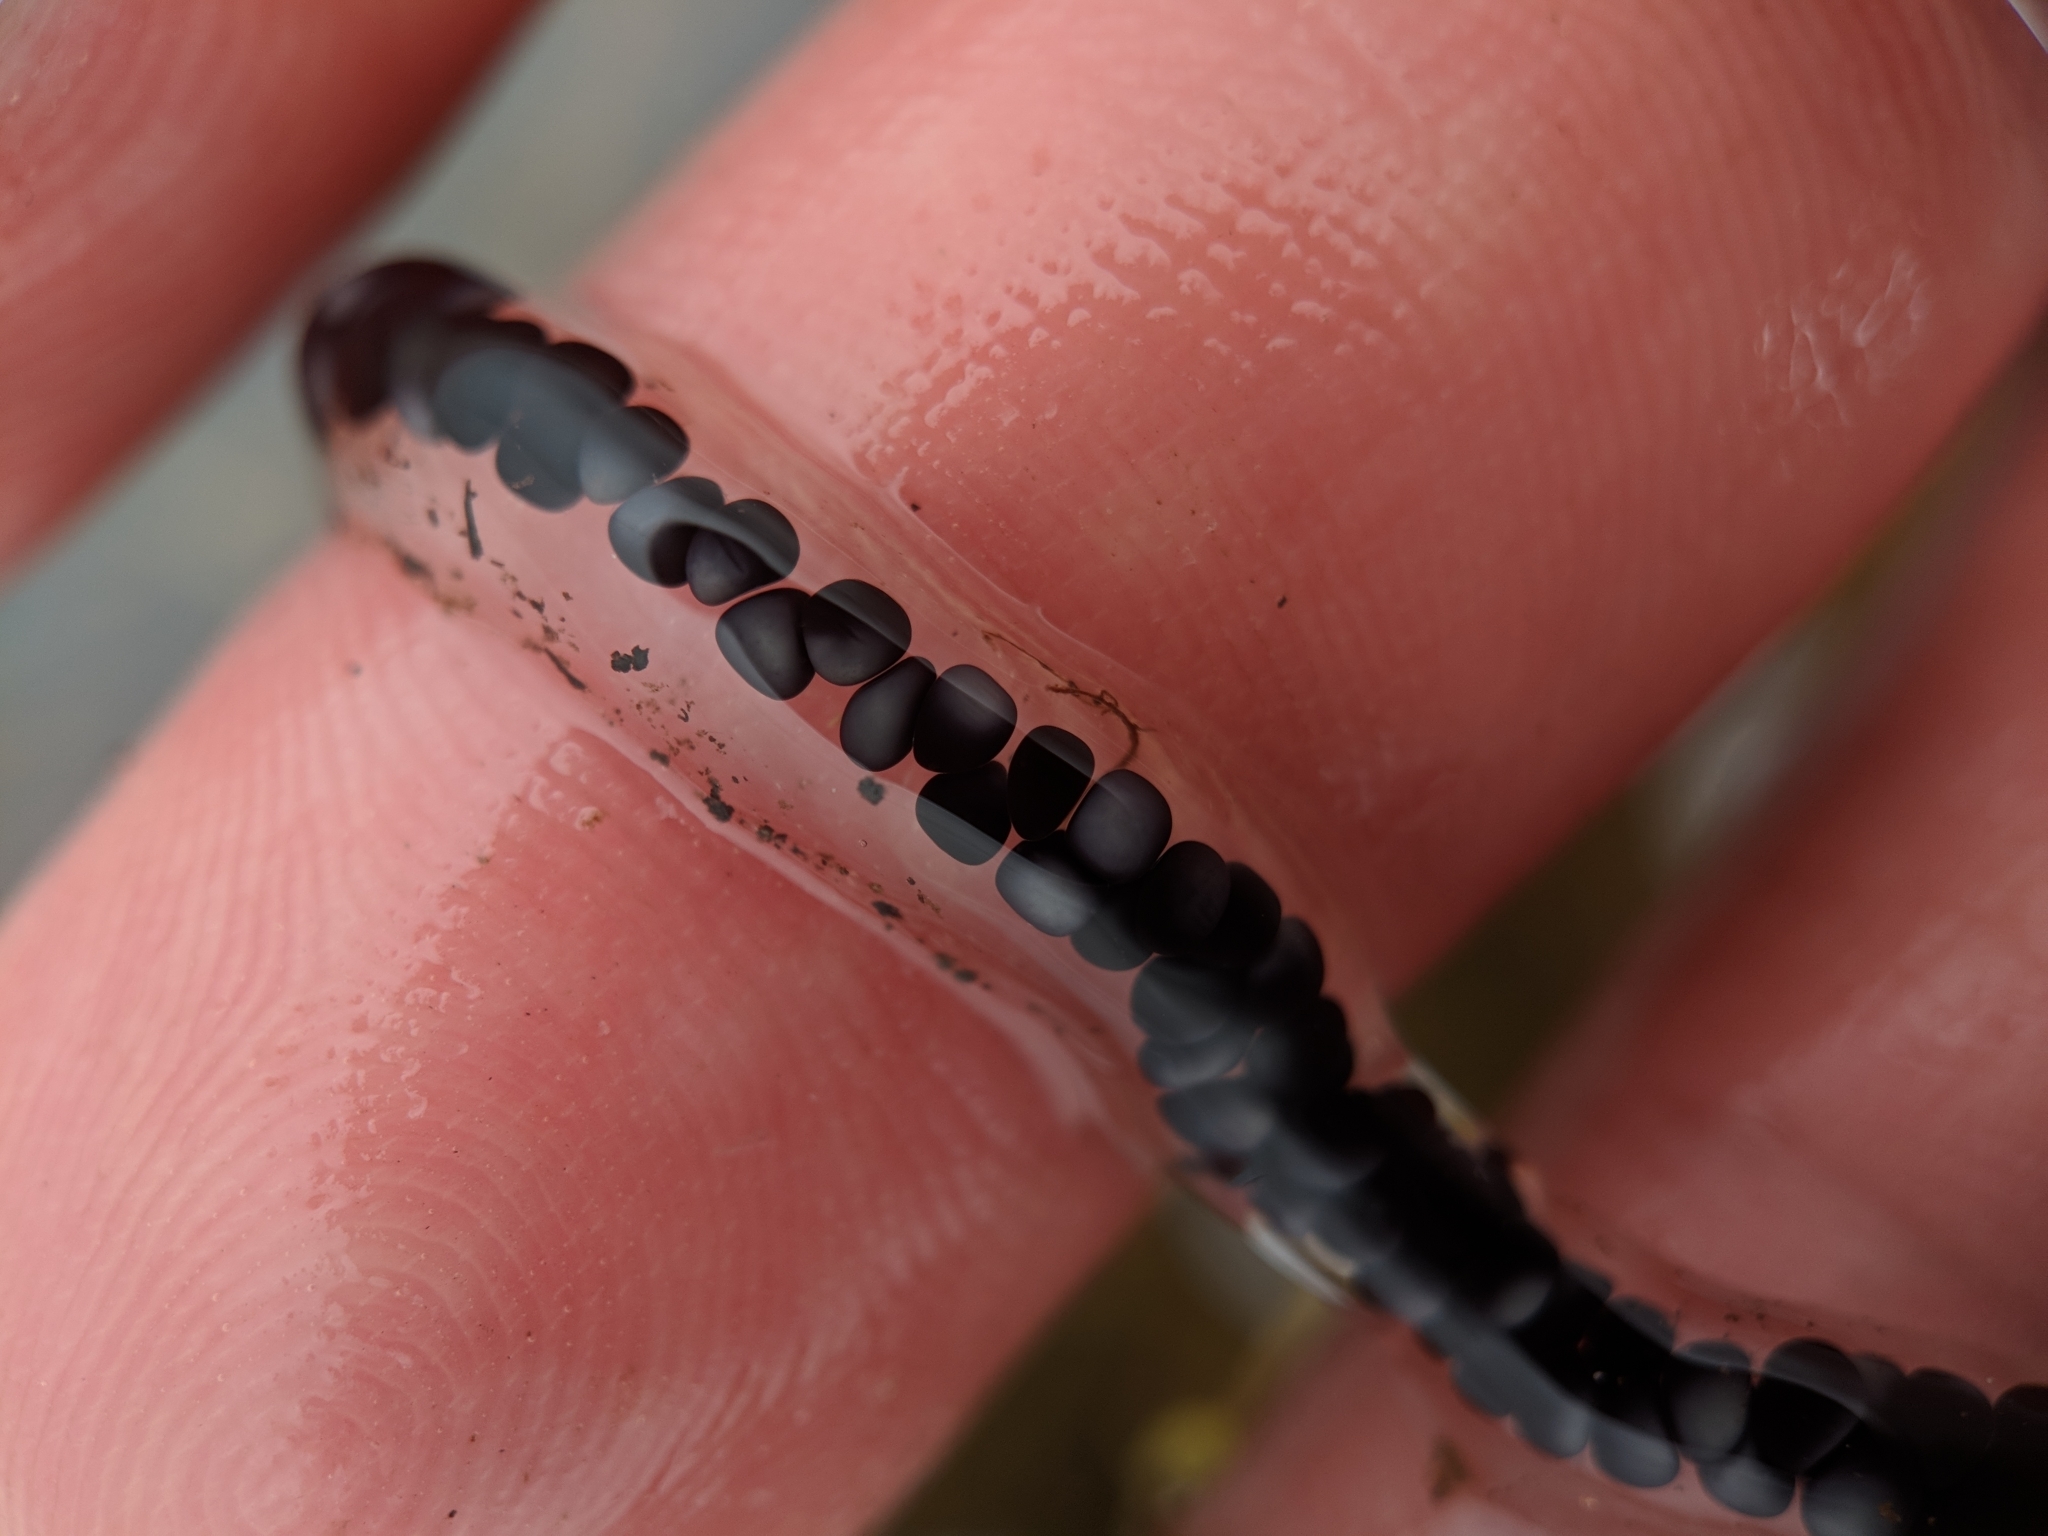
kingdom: Animalia
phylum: Chordata
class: Amphibia
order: Anura
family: Bufonidae
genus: Anaxyrus
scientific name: Anaxyrus americanus
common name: American toad
